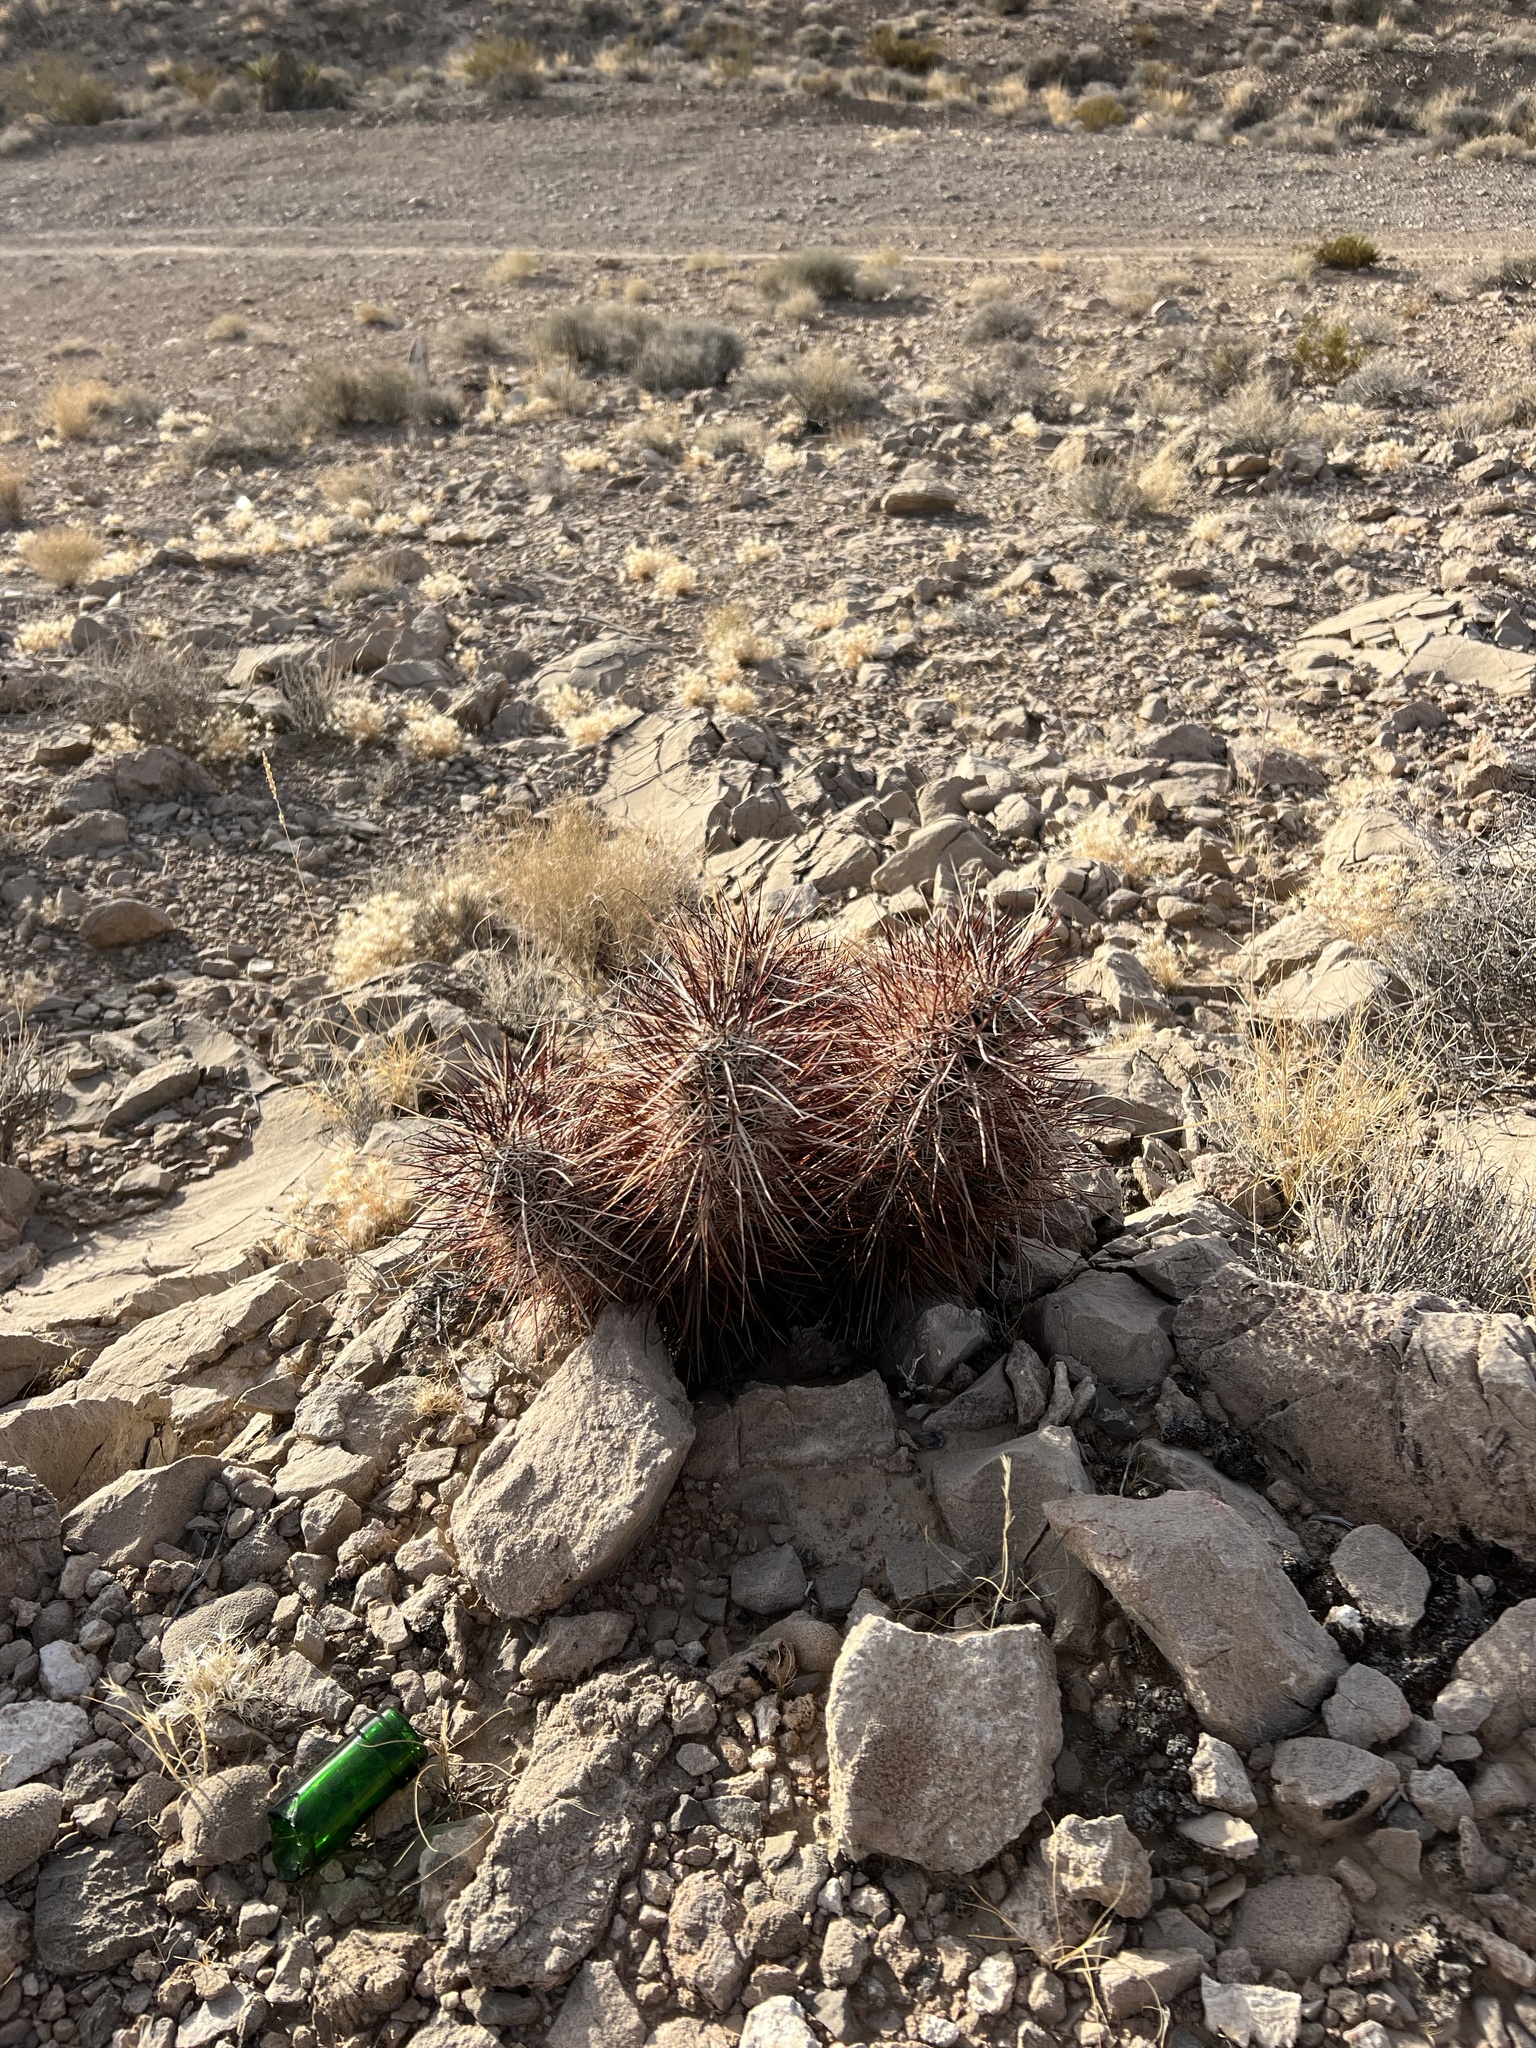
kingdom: Plantae
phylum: Tracheophyta
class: Magnoliopsida
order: Caryophyllales
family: Cactaceae
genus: Echinocereus
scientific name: Echinocereus engelmannii
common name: Engelmann's hedgehog cactus
